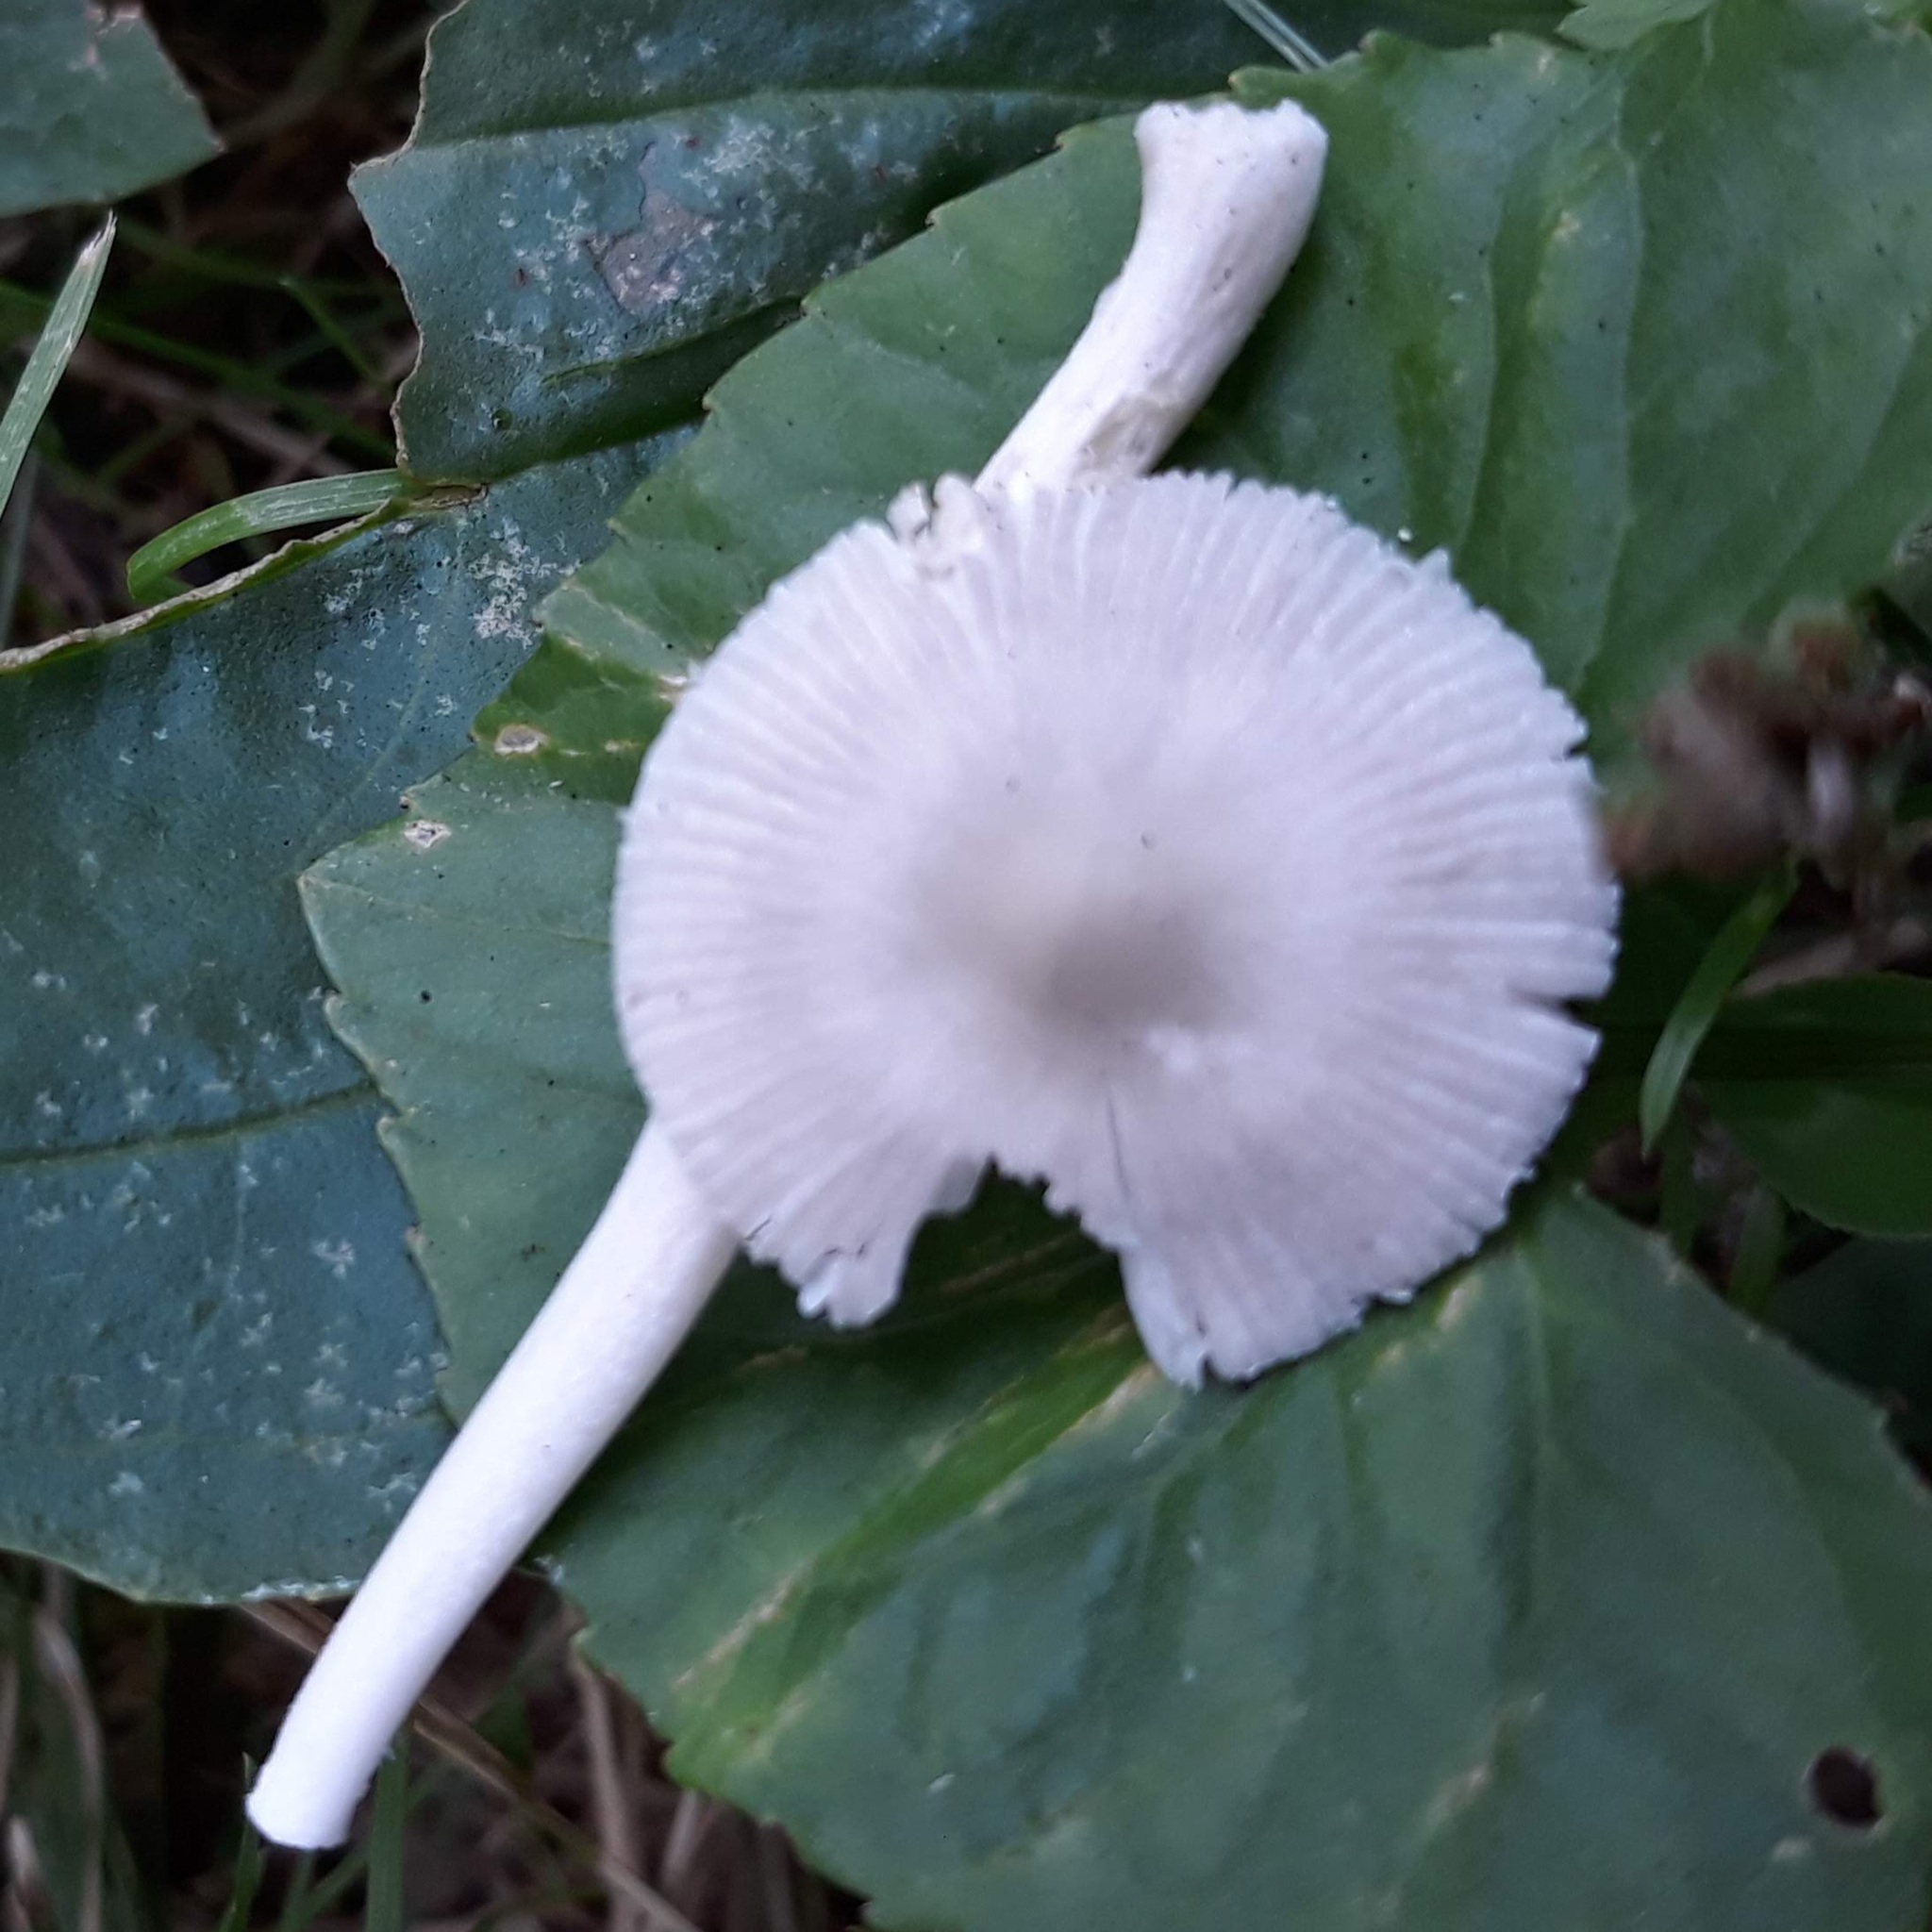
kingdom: Fungi
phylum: Basidiomycota
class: Agaricomycetes
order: Agaricales
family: Amanitaceae
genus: Amanita
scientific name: Amanita
